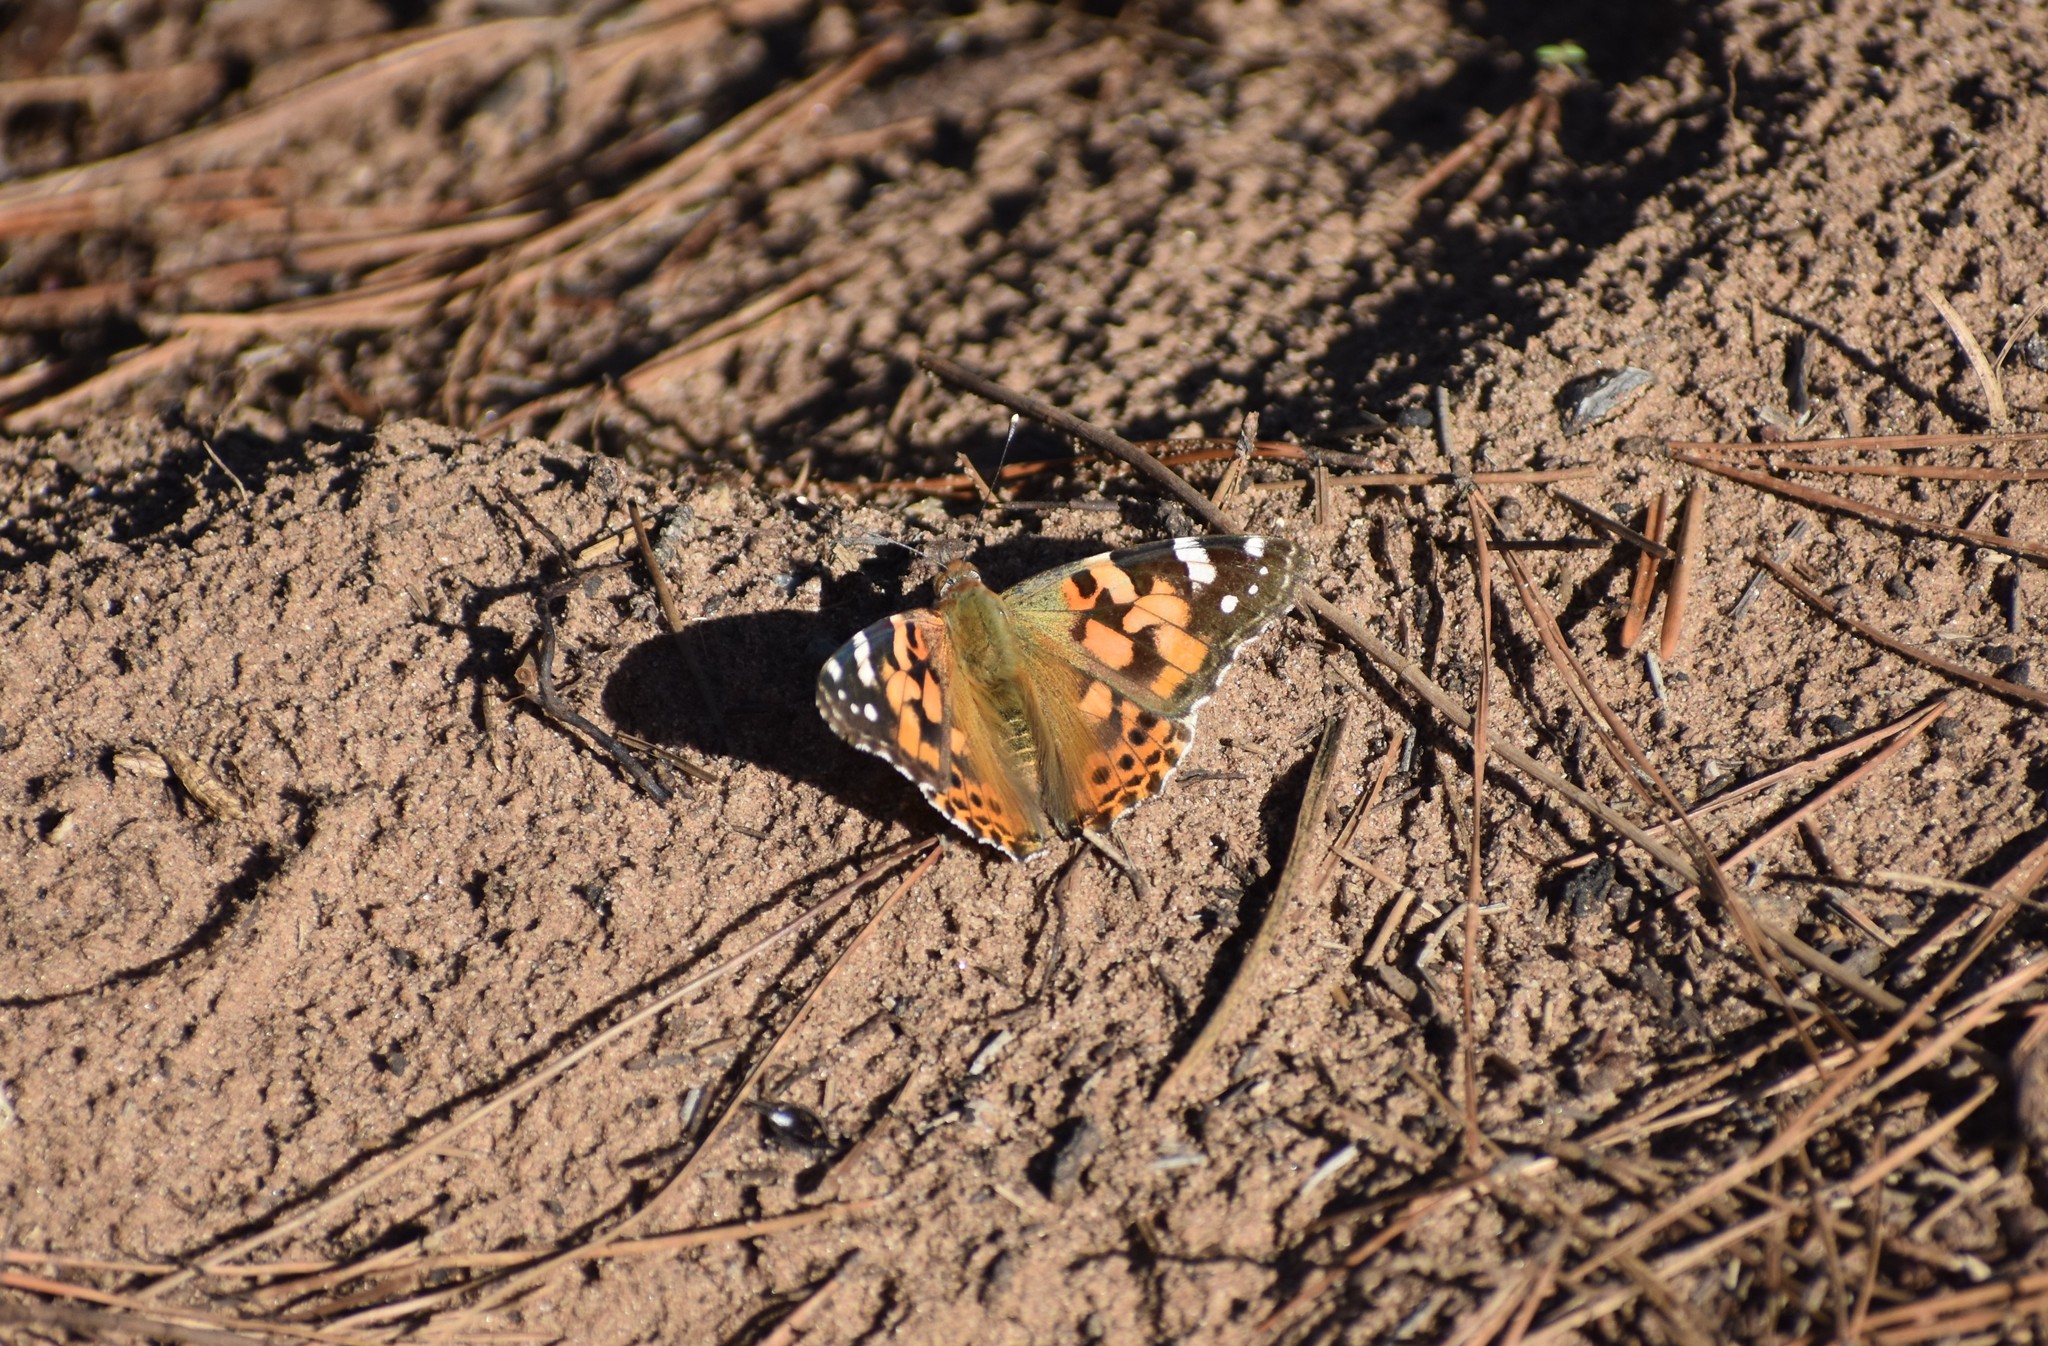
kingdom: Animalia
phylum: Arthropoda
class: Insecta
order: Lepidoptera
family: Nymphalidae
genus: Vanessa
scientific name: Vanessa cardui
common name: Painted lady
